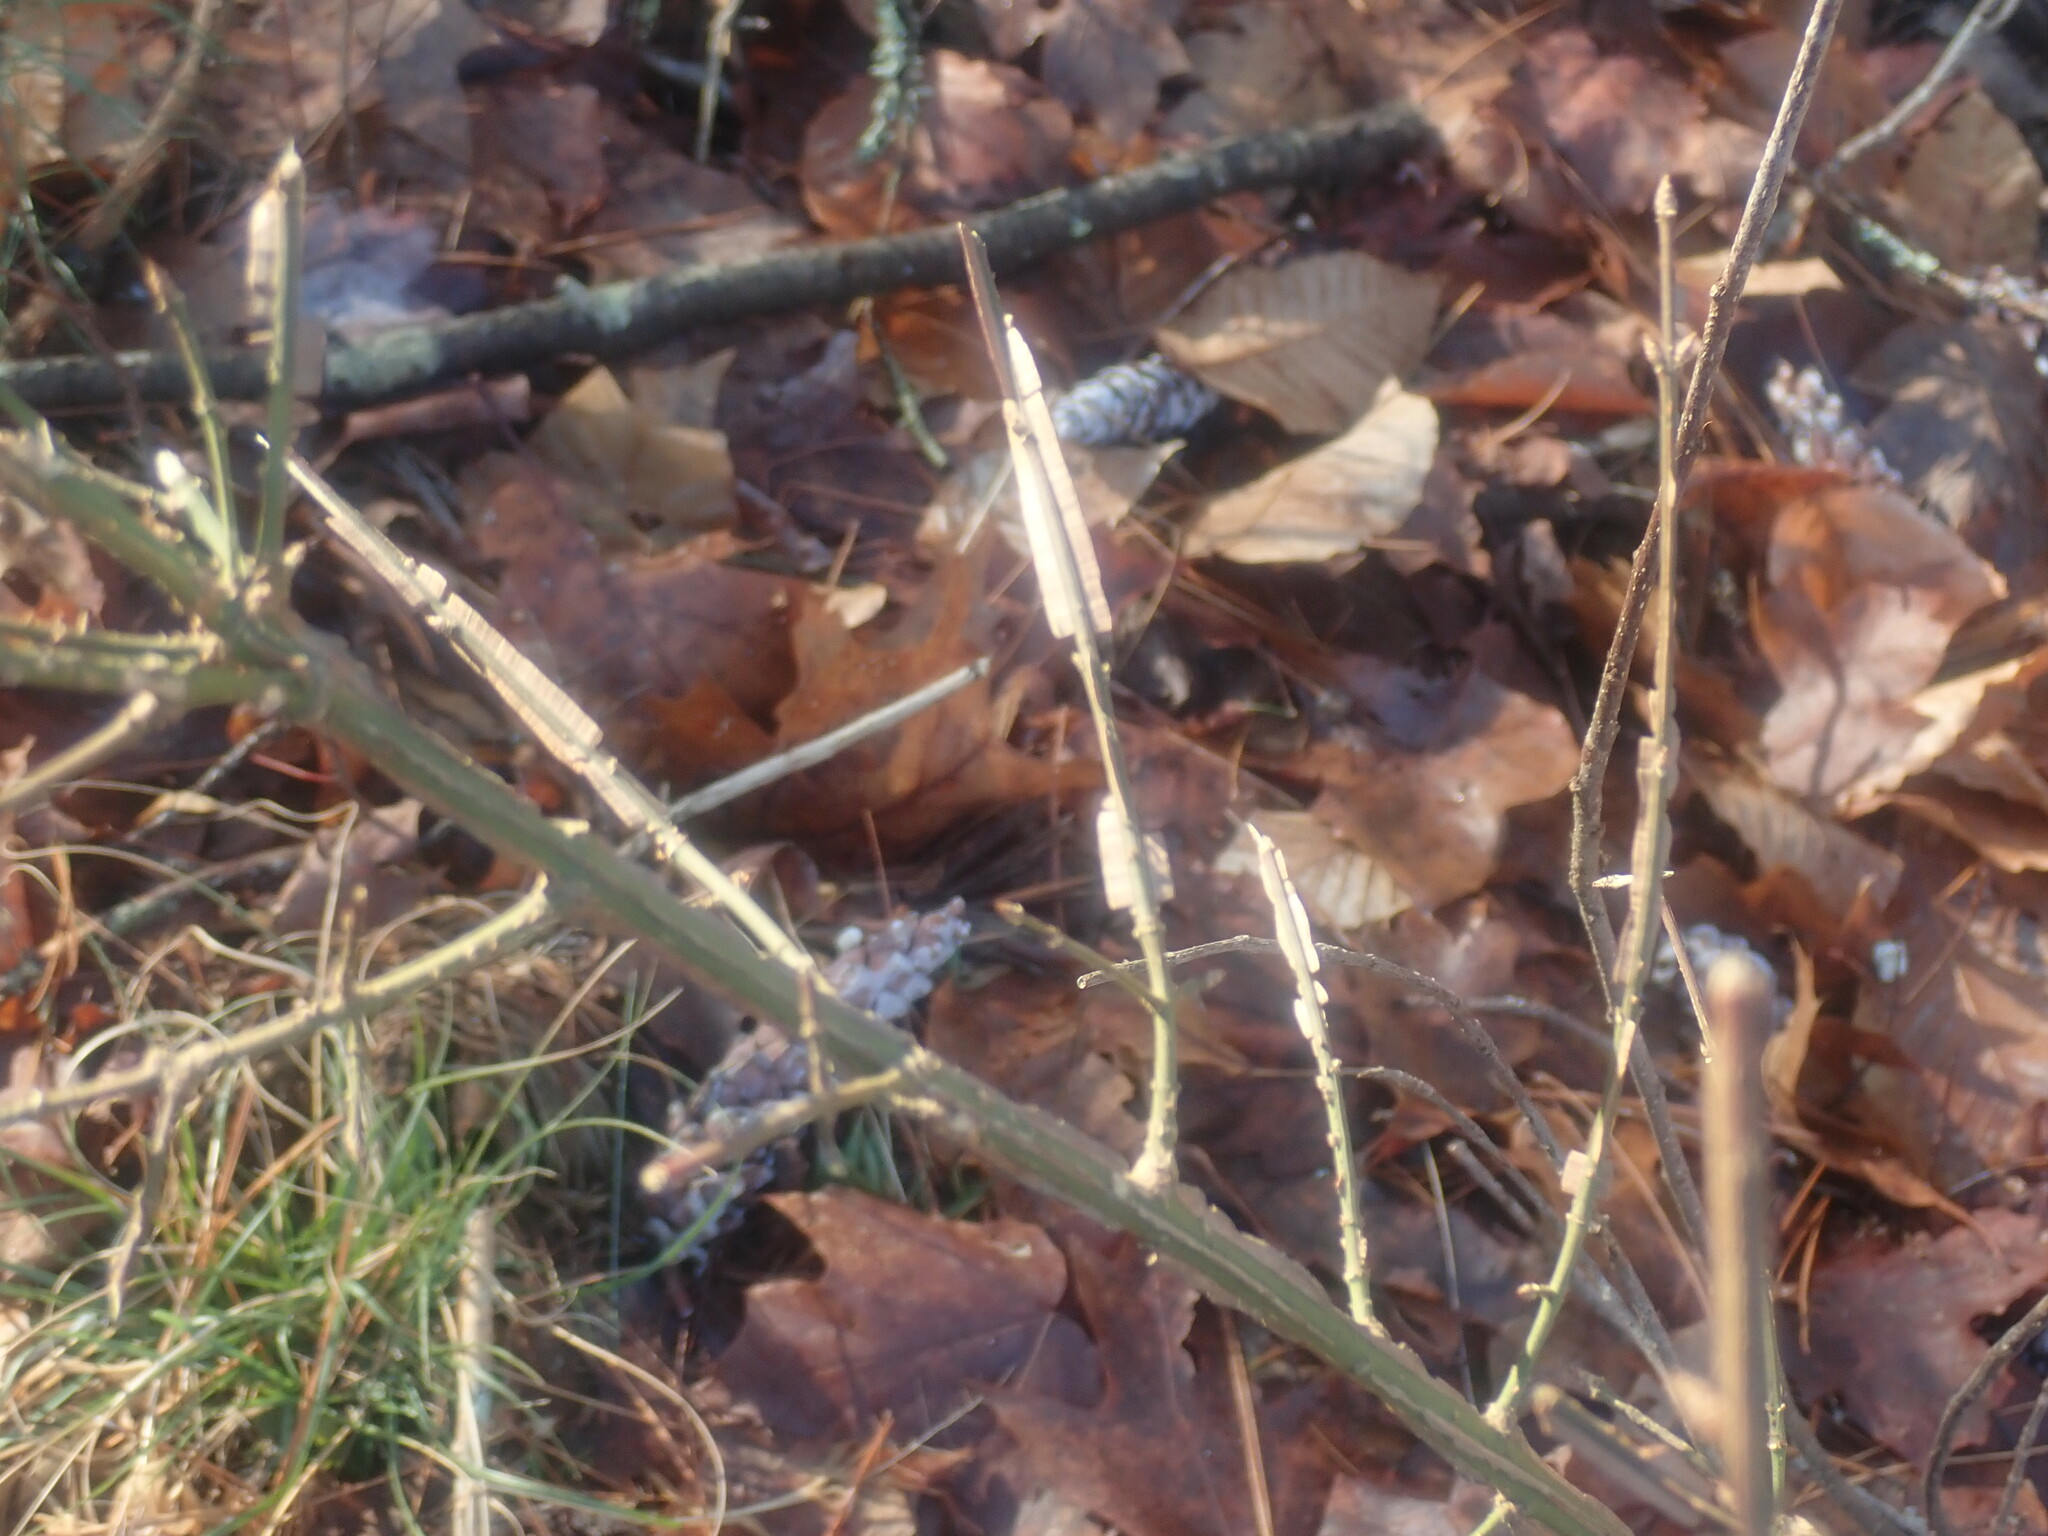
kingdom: Plantae
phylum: Tracheophyta
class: Magnoliopsida
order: Celastrales
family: Celastraceae
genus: Euonymus
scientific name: Euonymus alatus
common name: Winged euonymus
